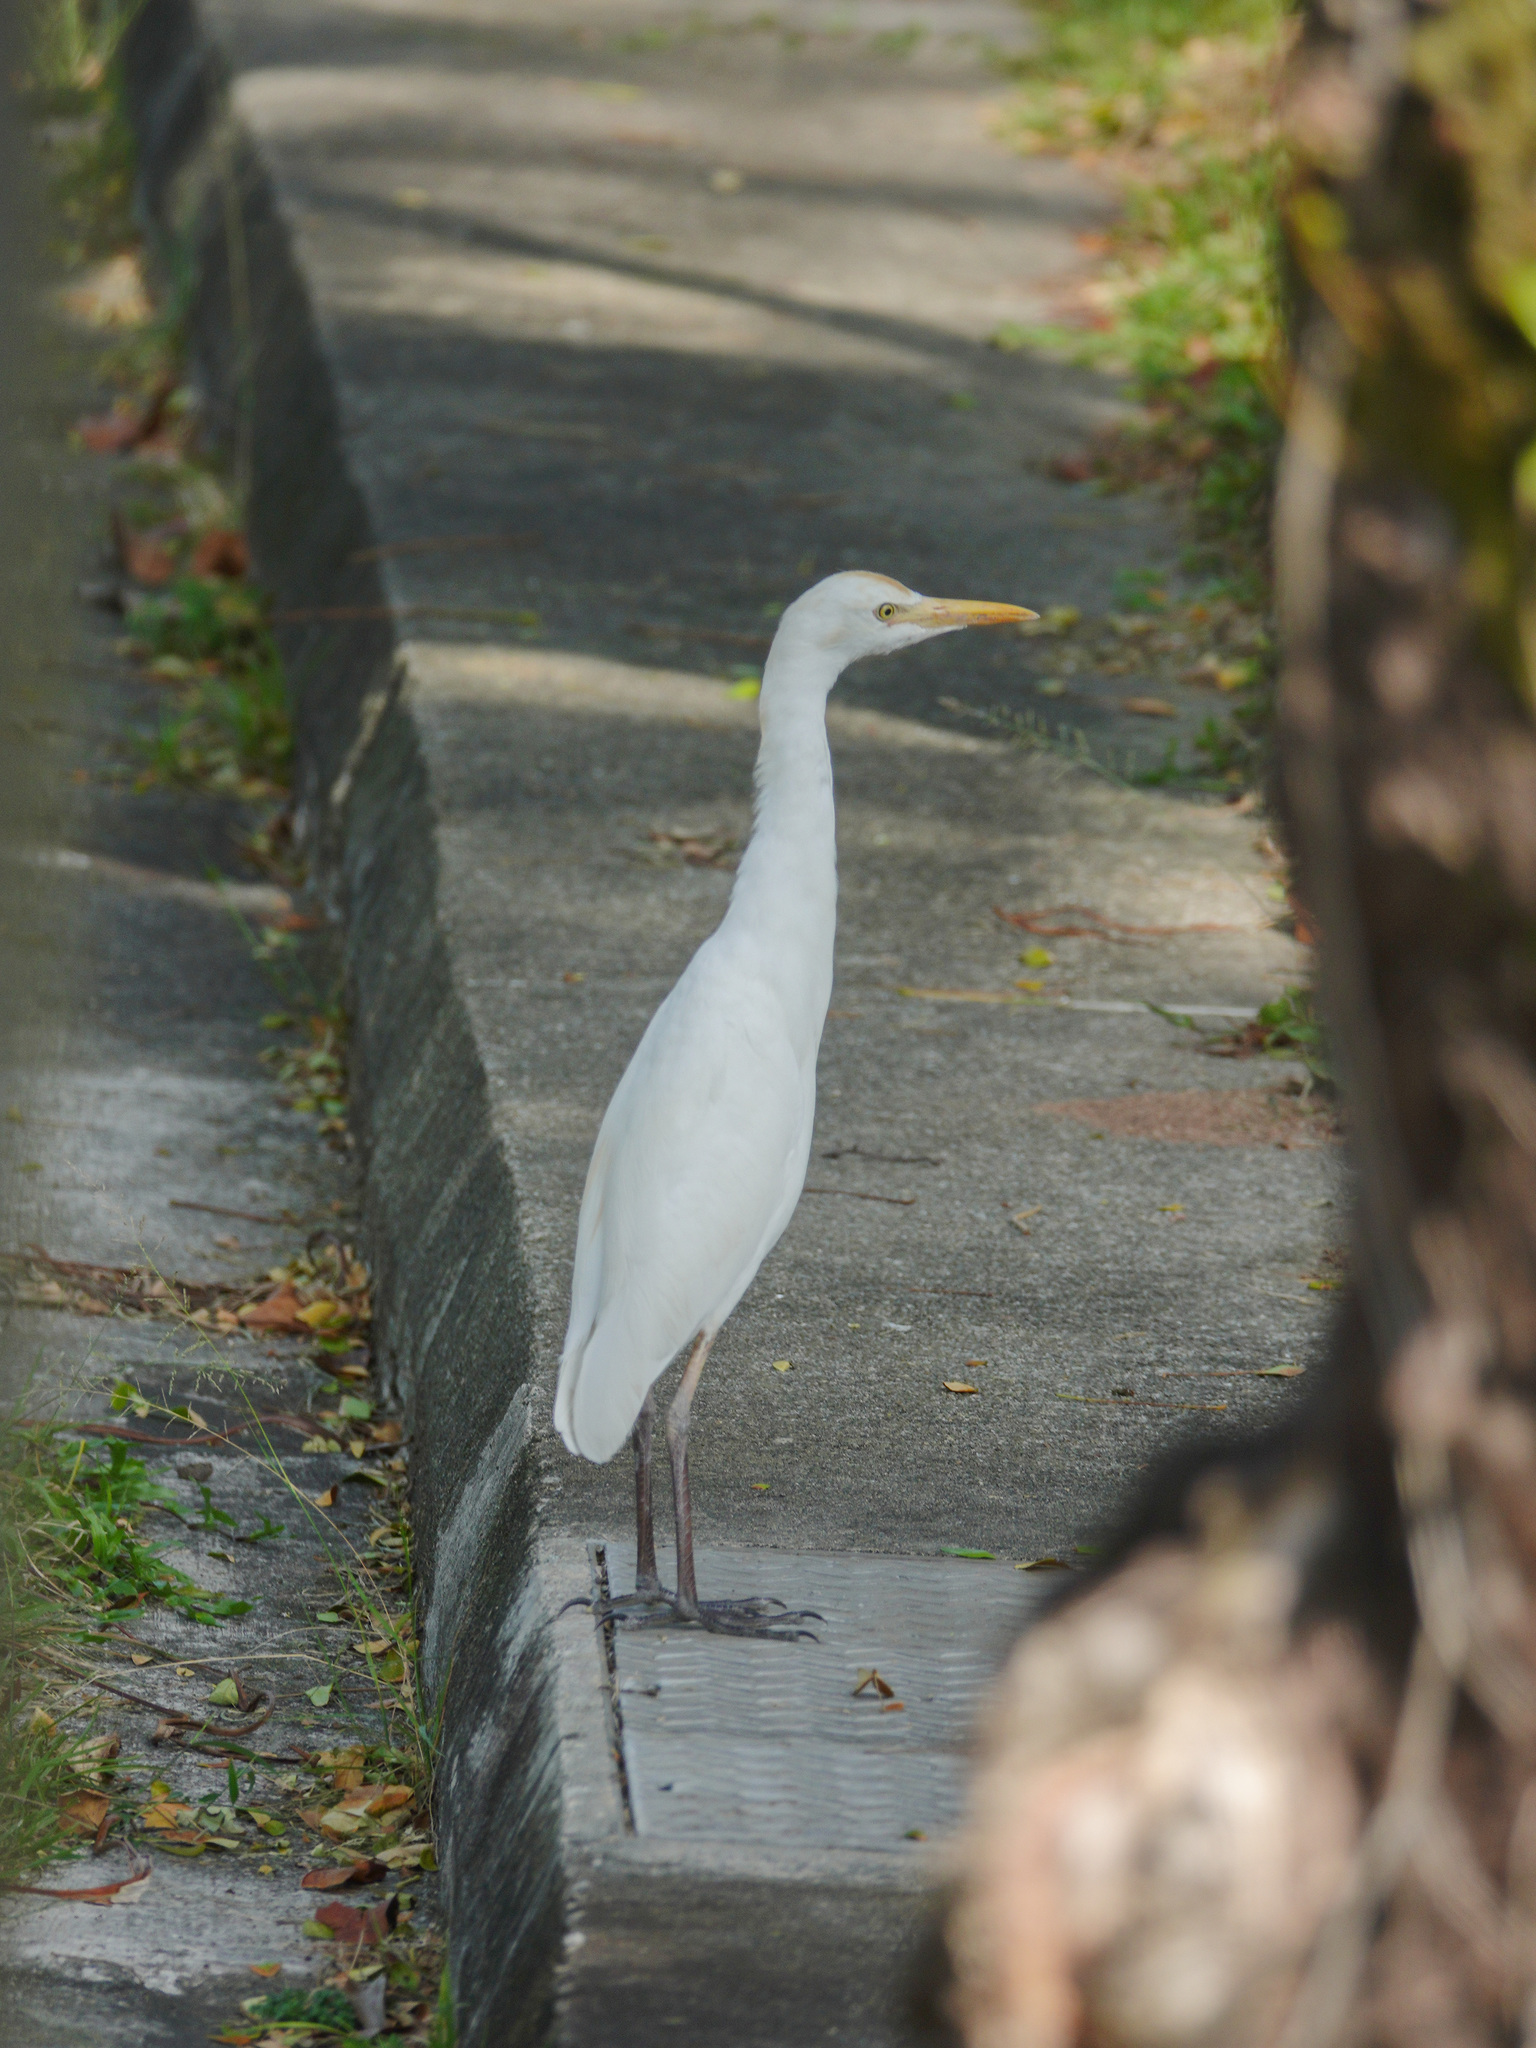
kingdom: Animalia
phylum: Chordata
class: Aves
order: Pelecaniformes
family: Ardeidae
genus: Bubulcus
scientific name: Bubulcus coromandus
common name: Eastern cattle egret
